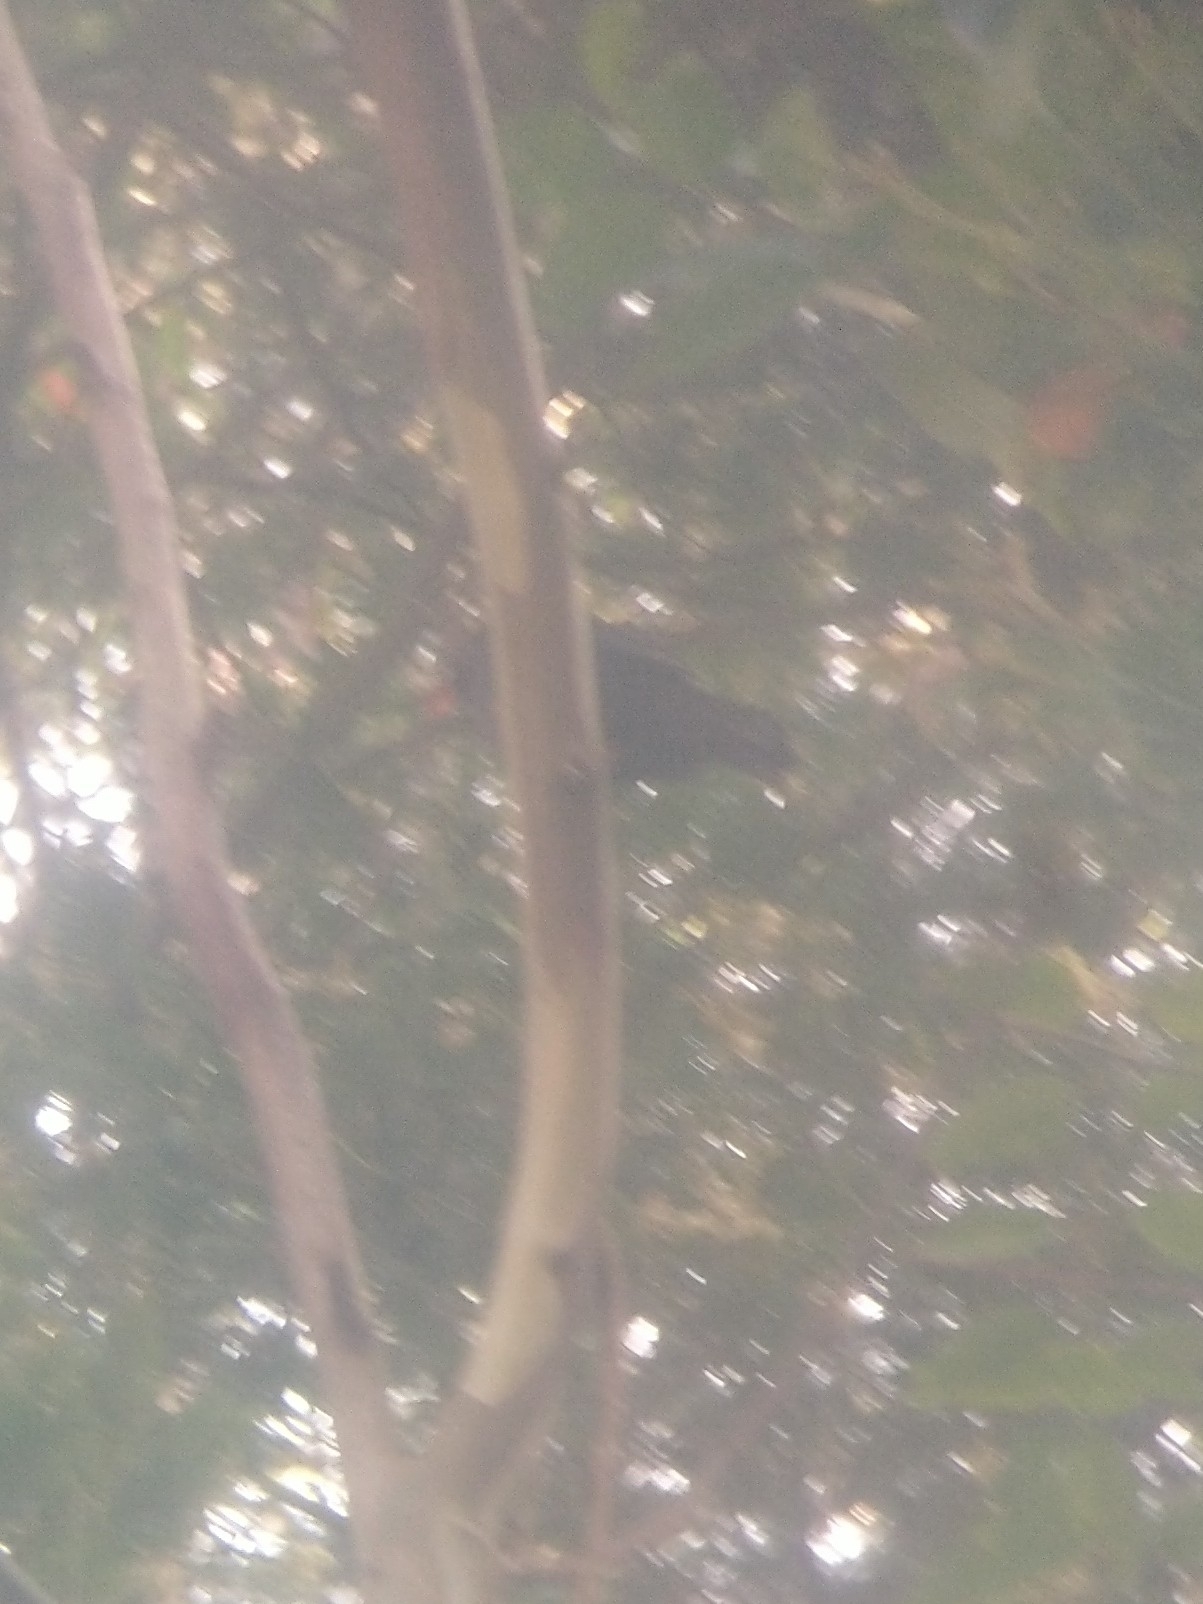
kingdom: Animalia
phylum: Chordata
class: Aves
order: Passeriformes
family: Turdidae
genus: Turdus
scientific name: Turdus simillimus
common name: Indian blackbird
